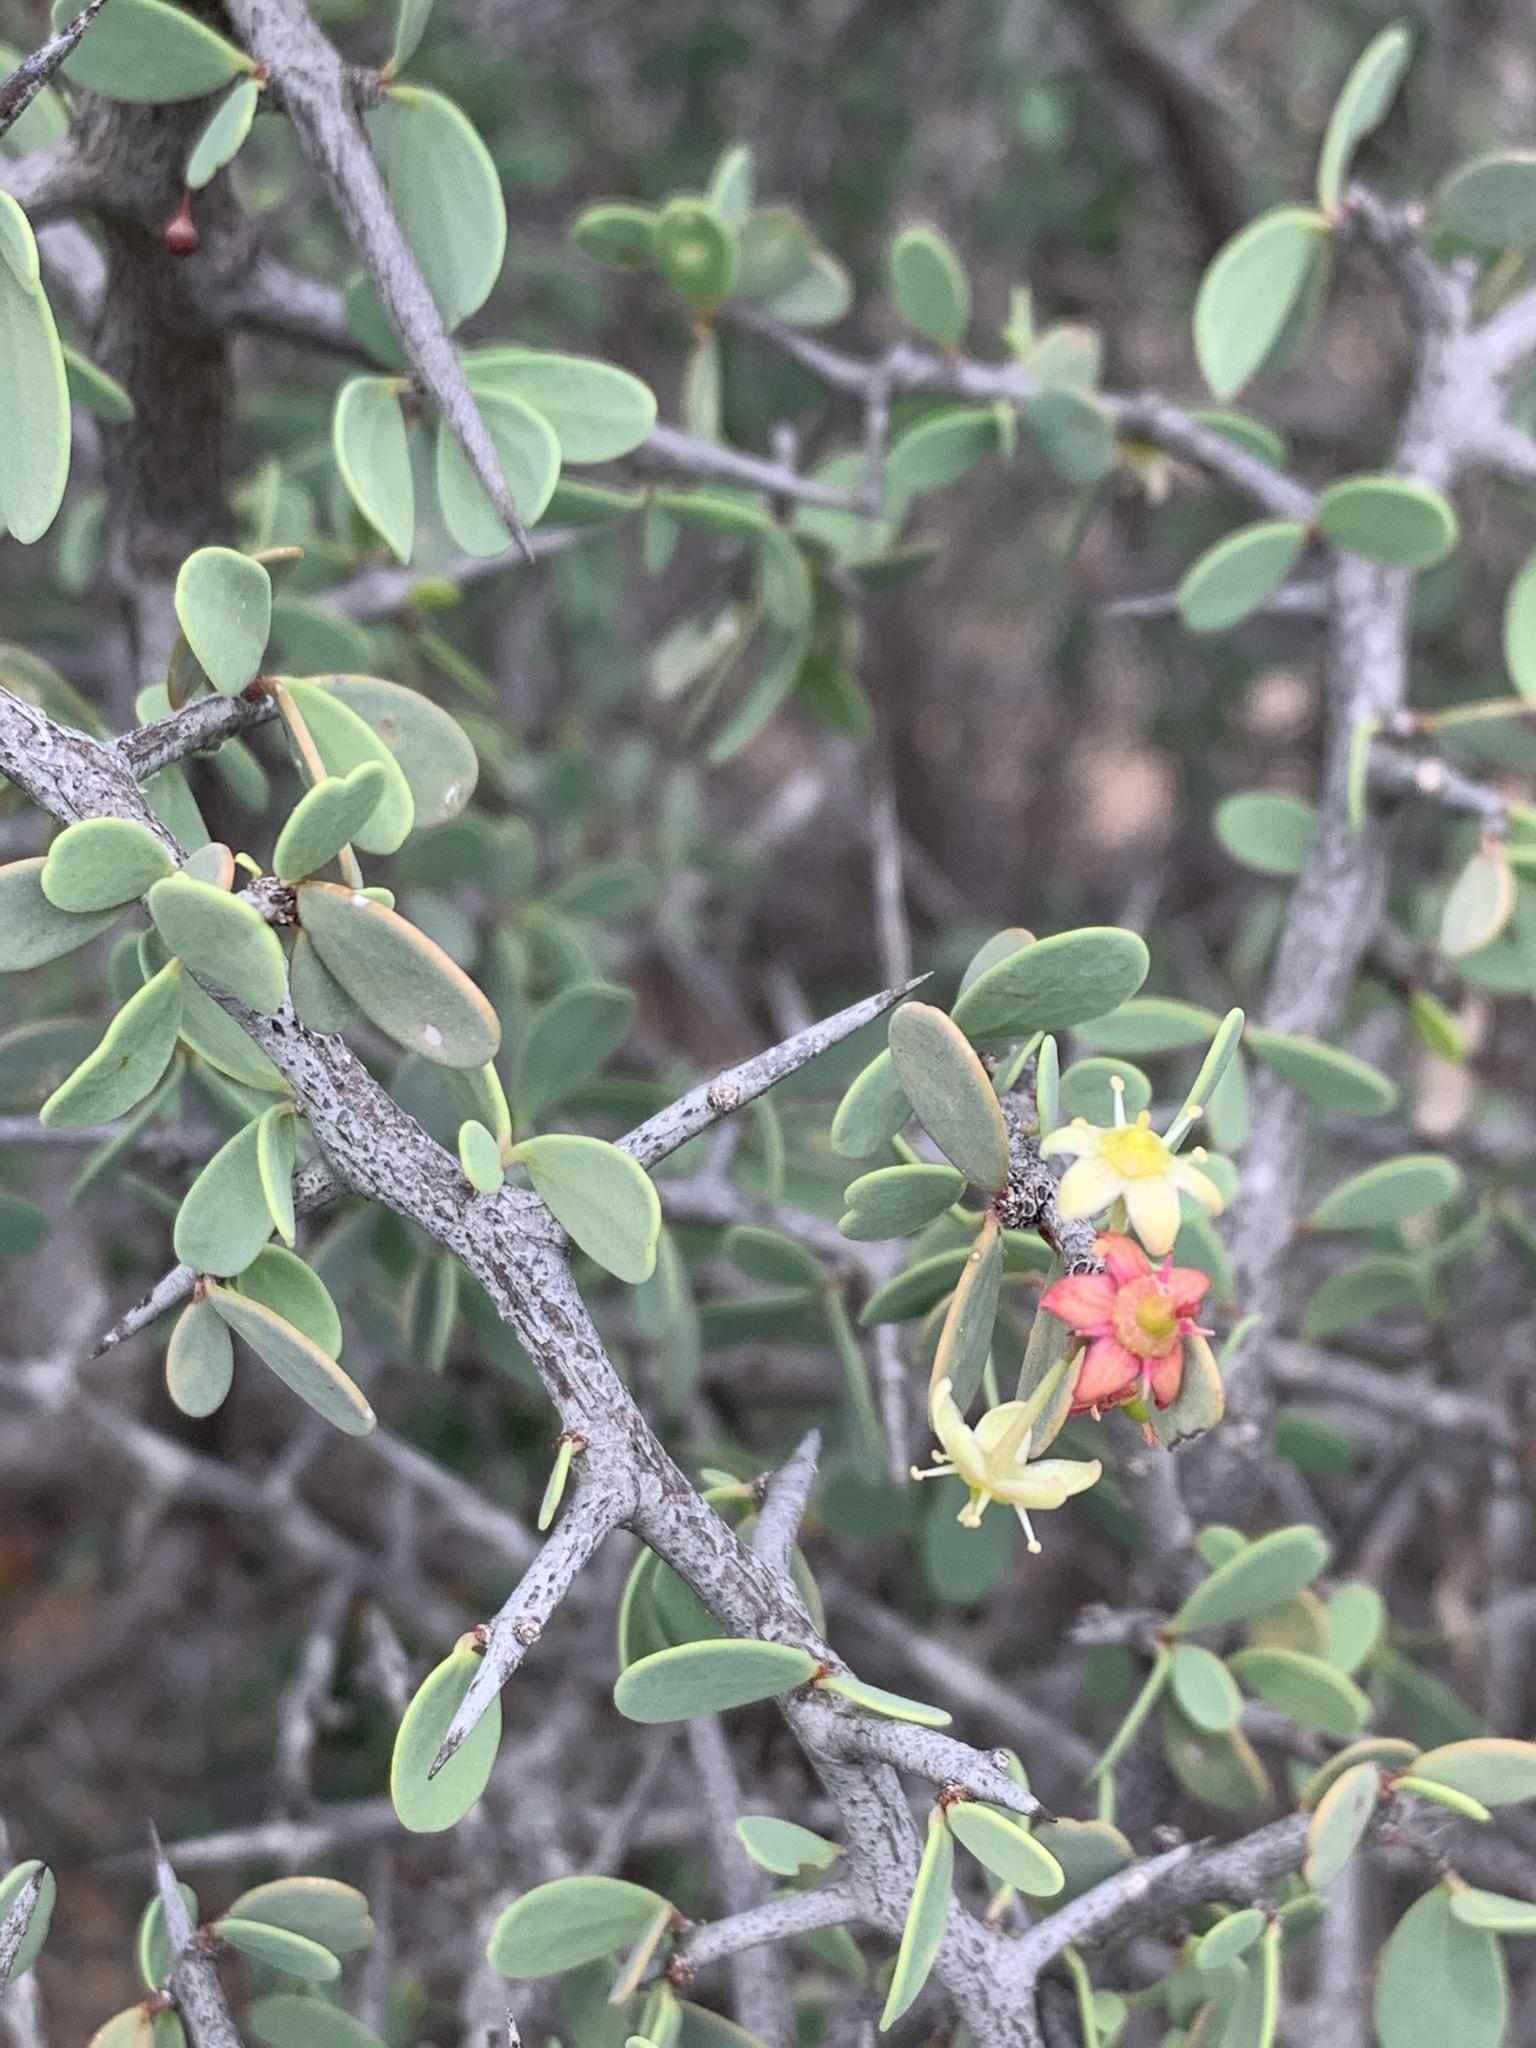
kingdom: Plantae
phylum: Tracheophyta
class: Magnoliopsida
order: Celastrales
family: Celastraceae
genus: Gloveria
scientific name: Gloveria integrifolia
